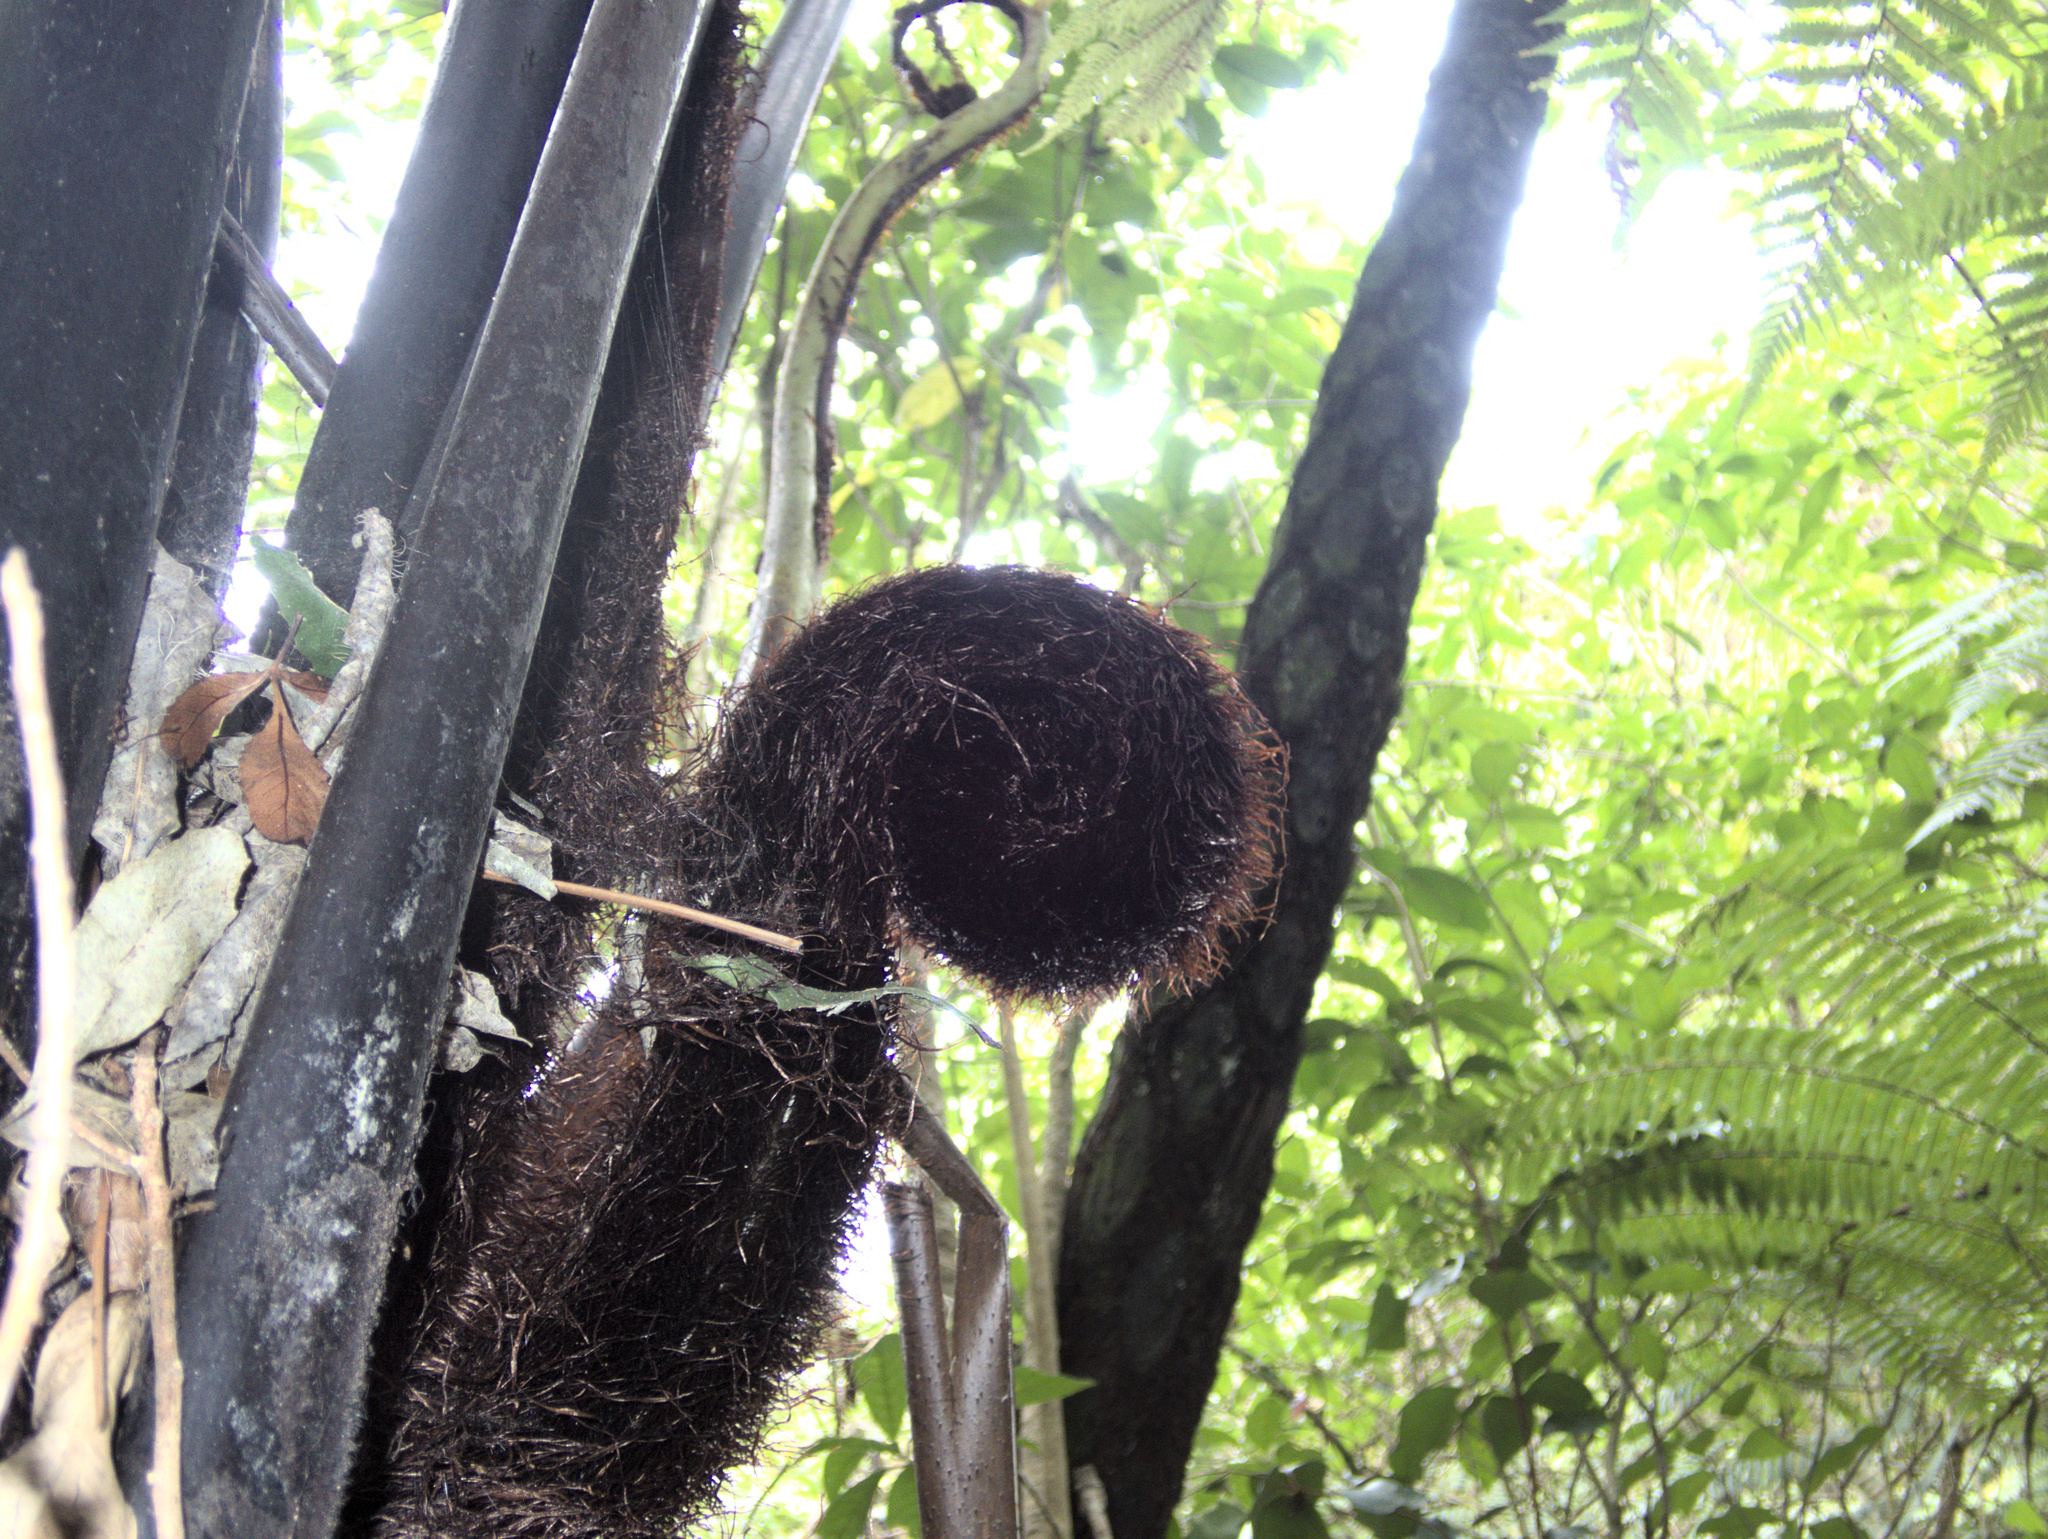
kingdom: Plantae
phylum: Tracheophyta
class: Polypodiopsida
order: Cyatheales
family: Cyatheaceae
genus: Sphaeropteris
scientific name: Sphaeropteris medullaris
